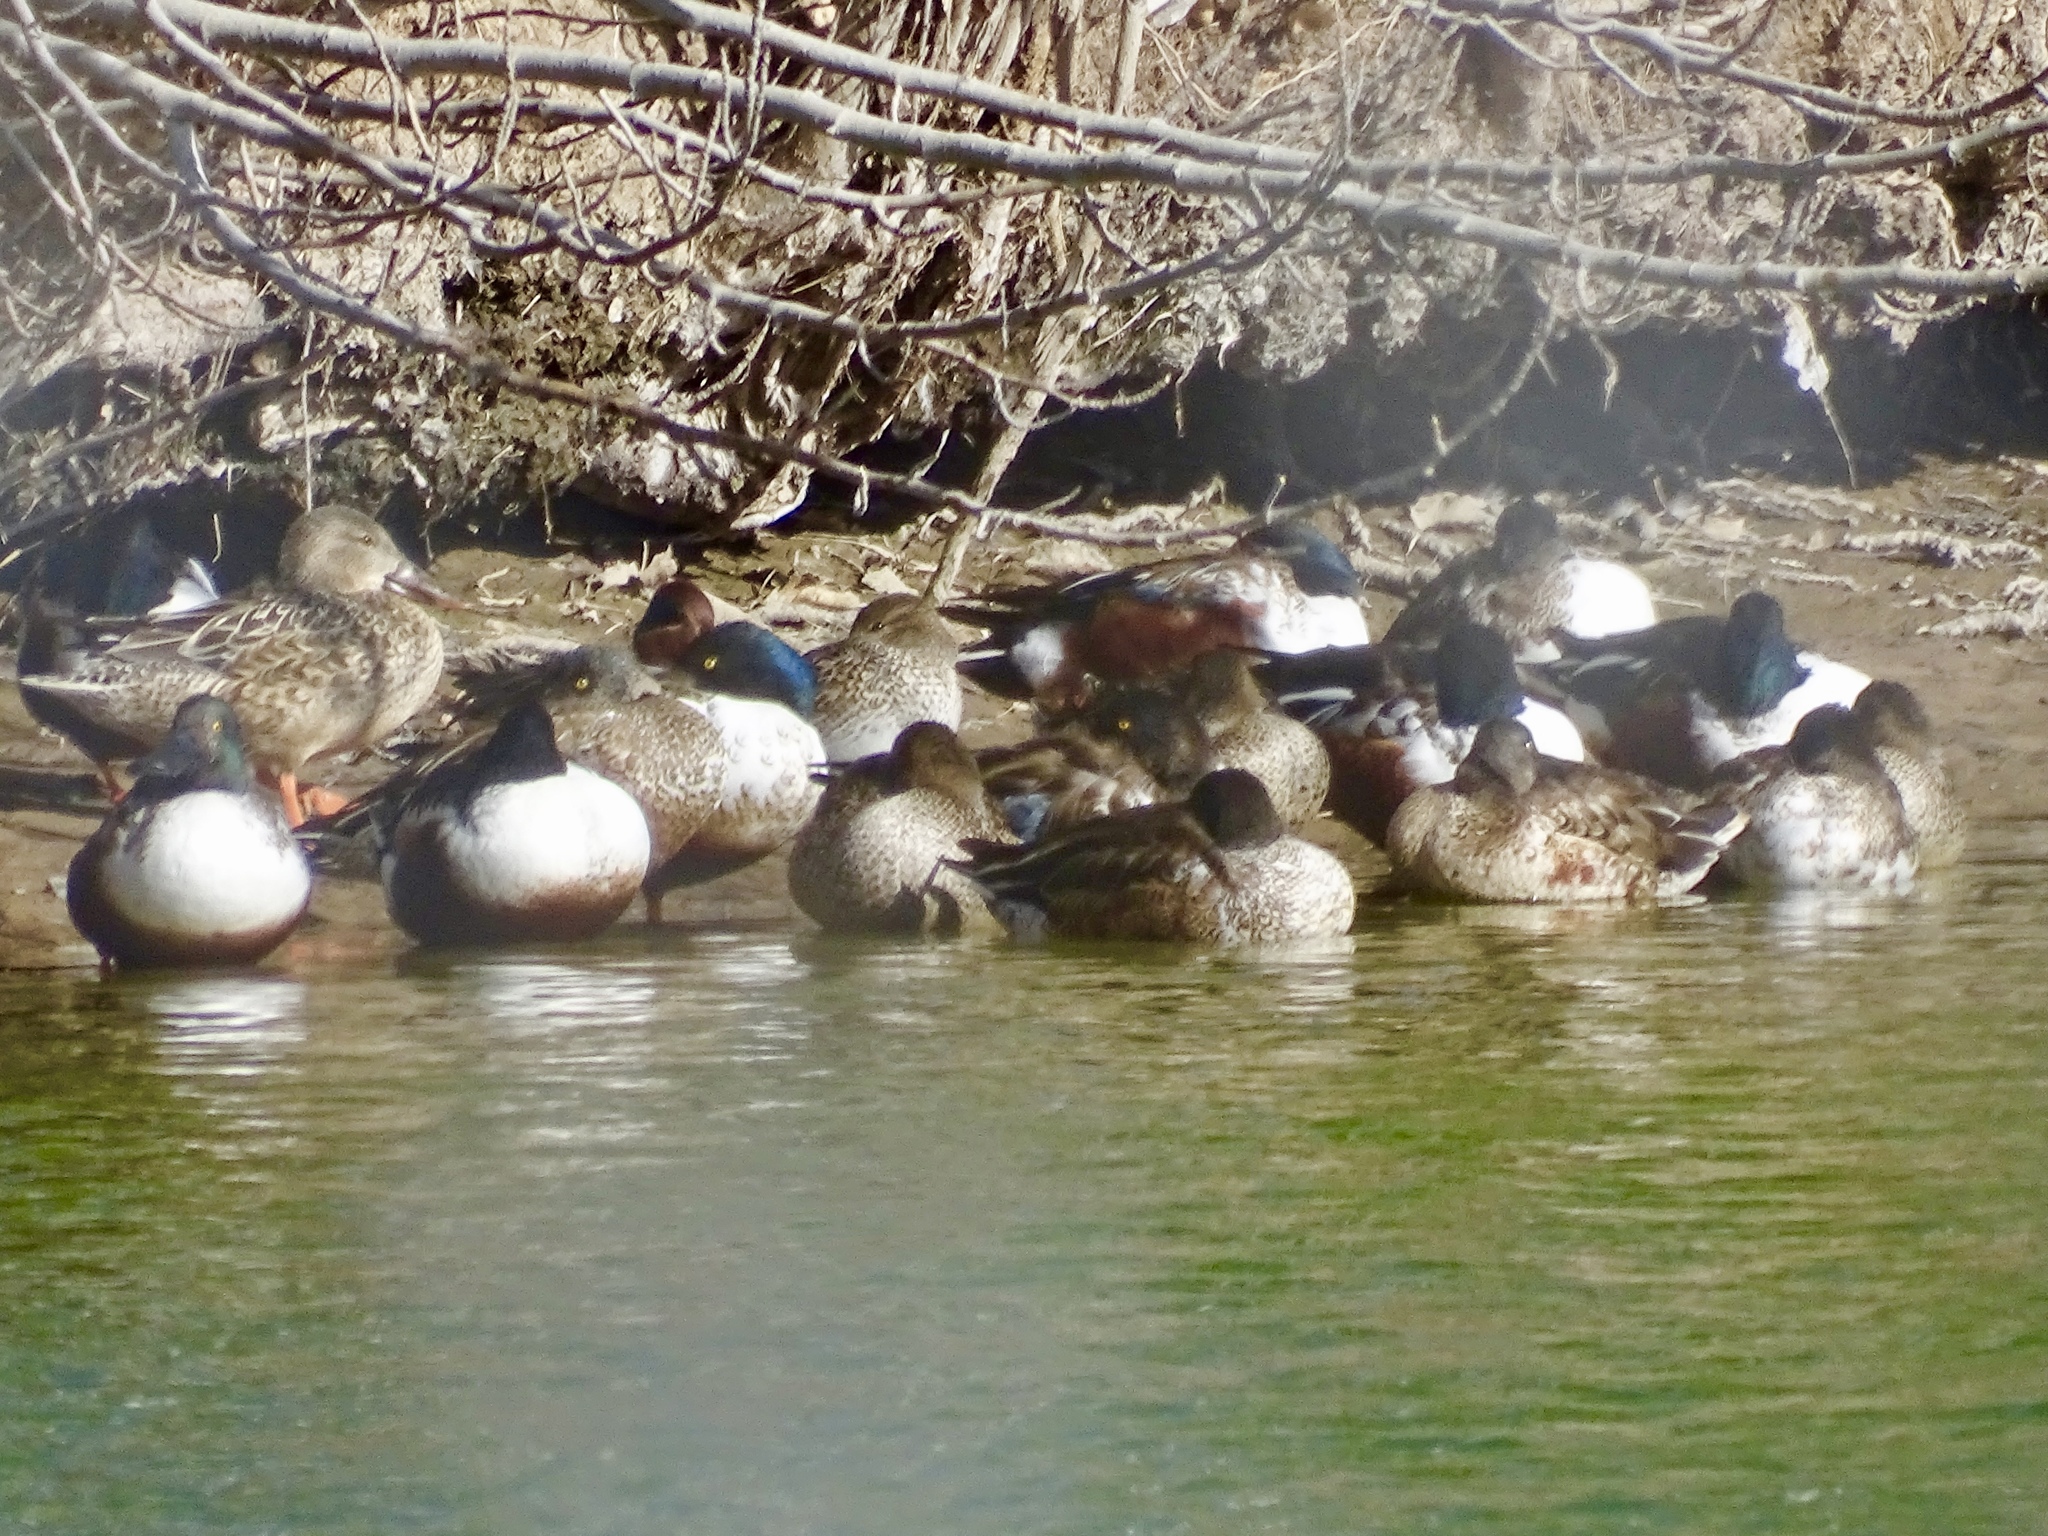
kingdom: Animalia
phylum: Chordata
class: Aves
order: Anseriformes
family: Anatidae
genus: Spatula
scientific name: Spatula clypeata
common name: Northern shoveler
